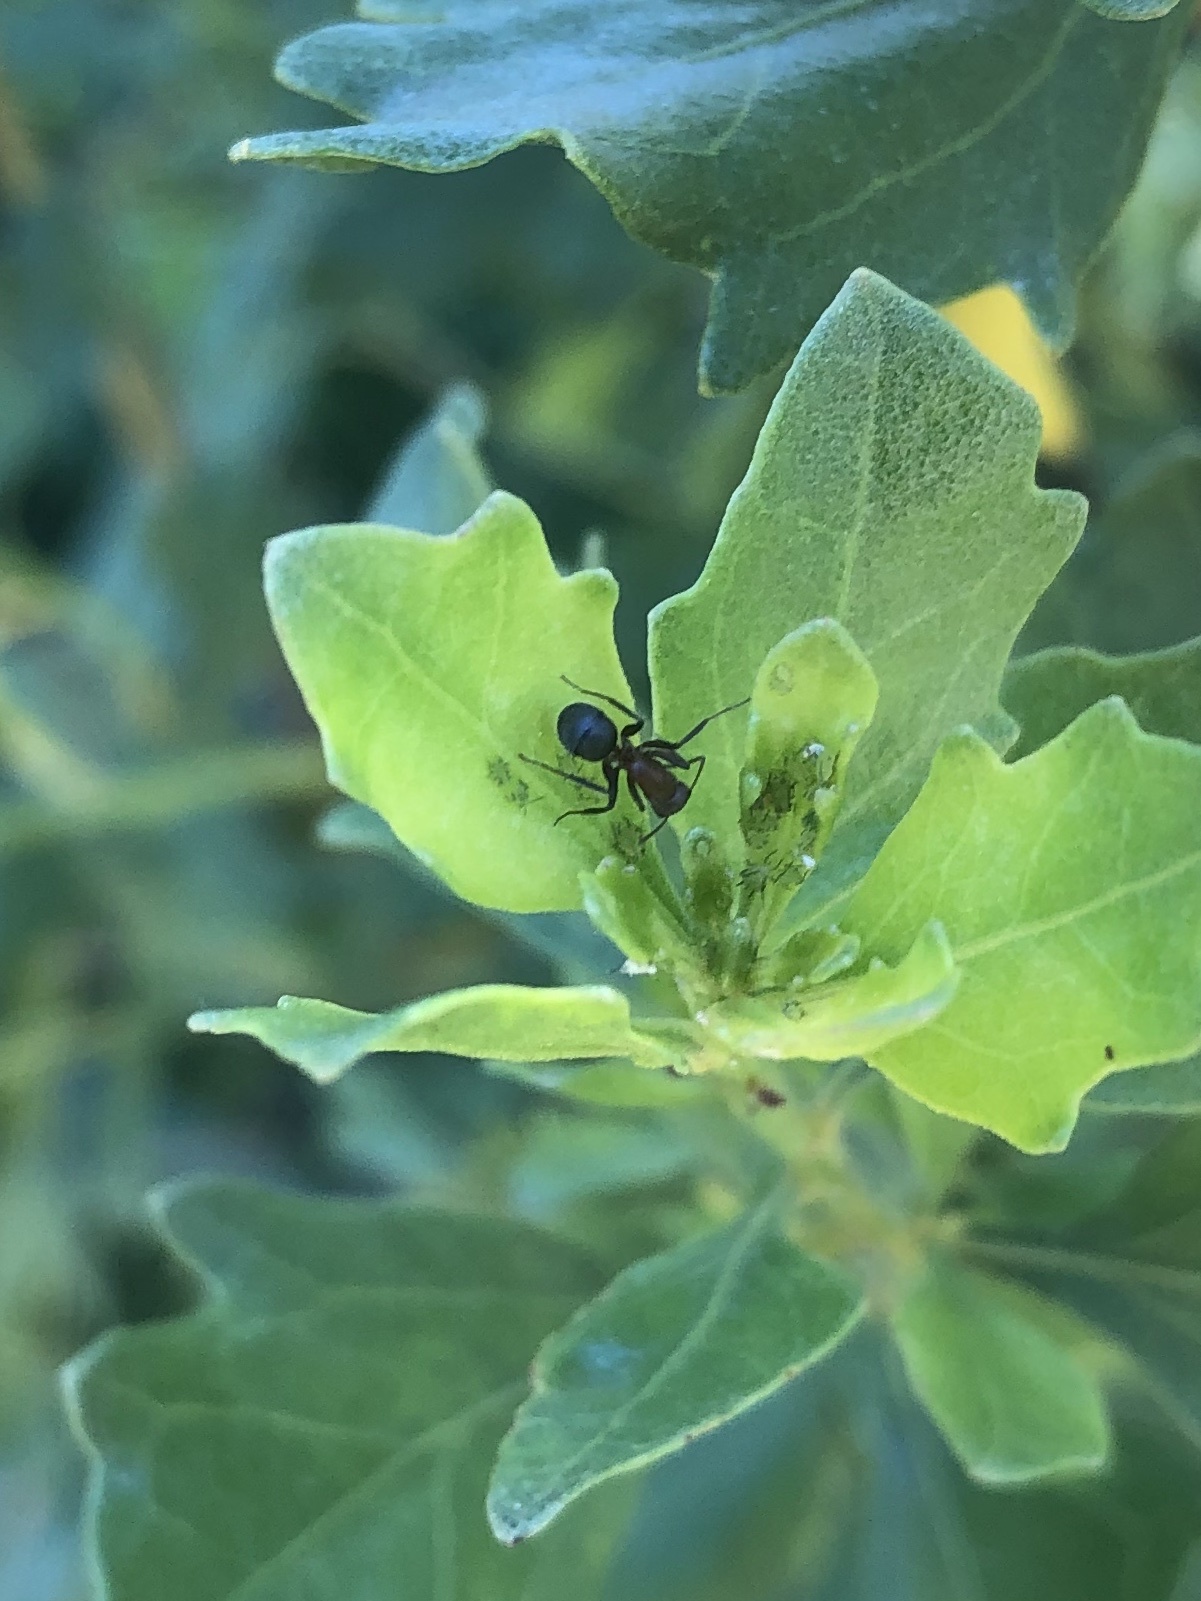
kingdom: Animalia
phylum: Arthropoda
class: Insecta
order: Hymenoptera
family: Formicidae
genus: Camponotus
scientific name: Camponotus planatus
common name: Compact carpenter ant
